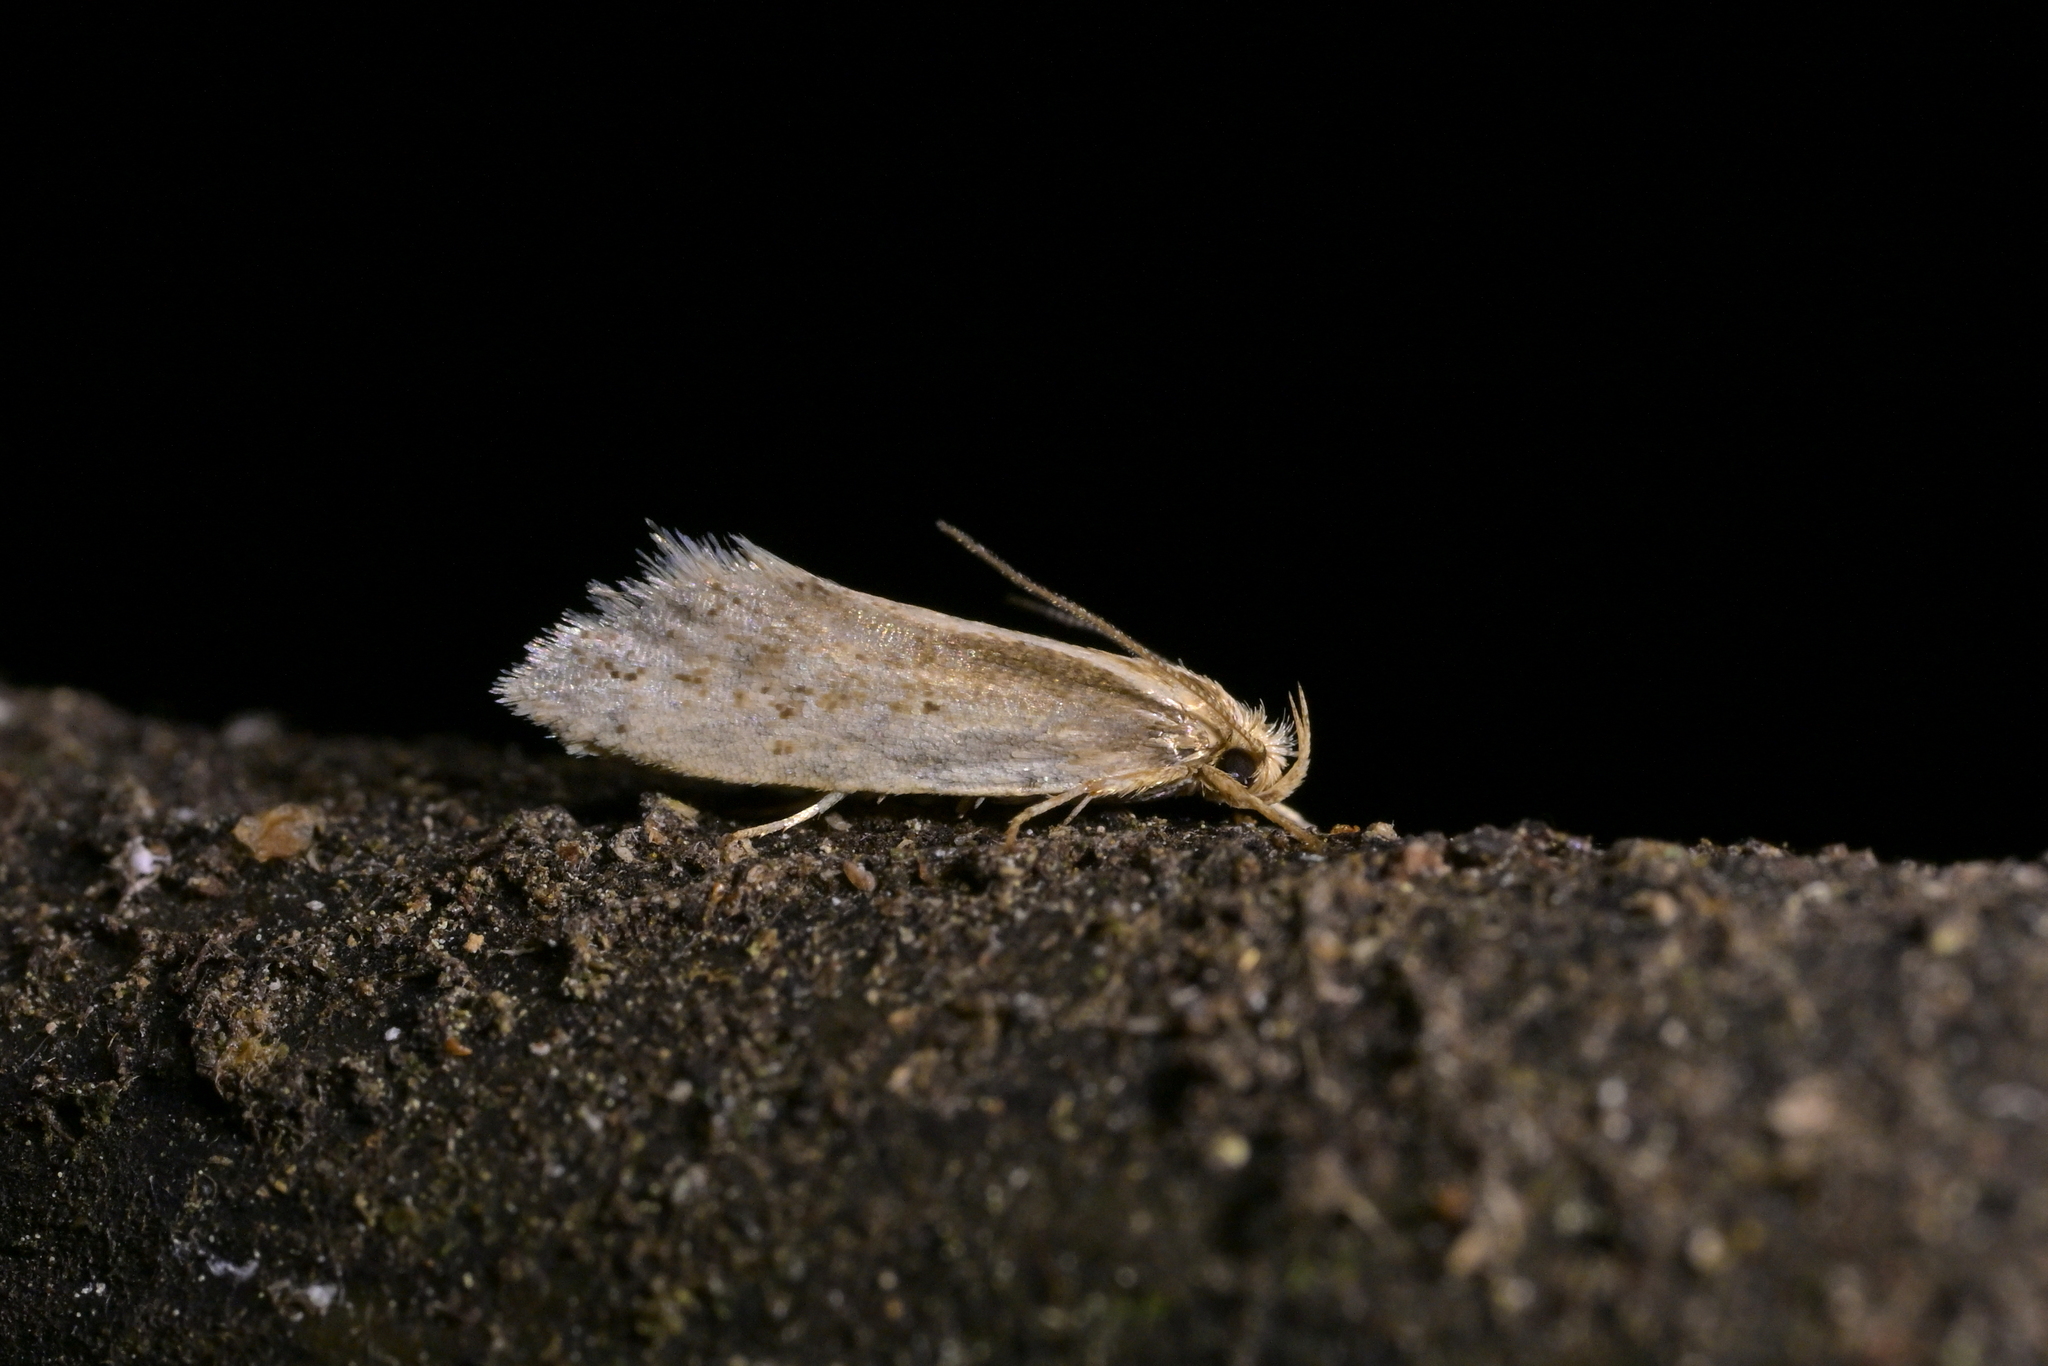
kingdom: Animalia
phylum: Arthropoda
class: Insecta
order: Lepidoptera
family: Oecophoridae
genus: Tingena
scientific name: Tingena chloradelpha
